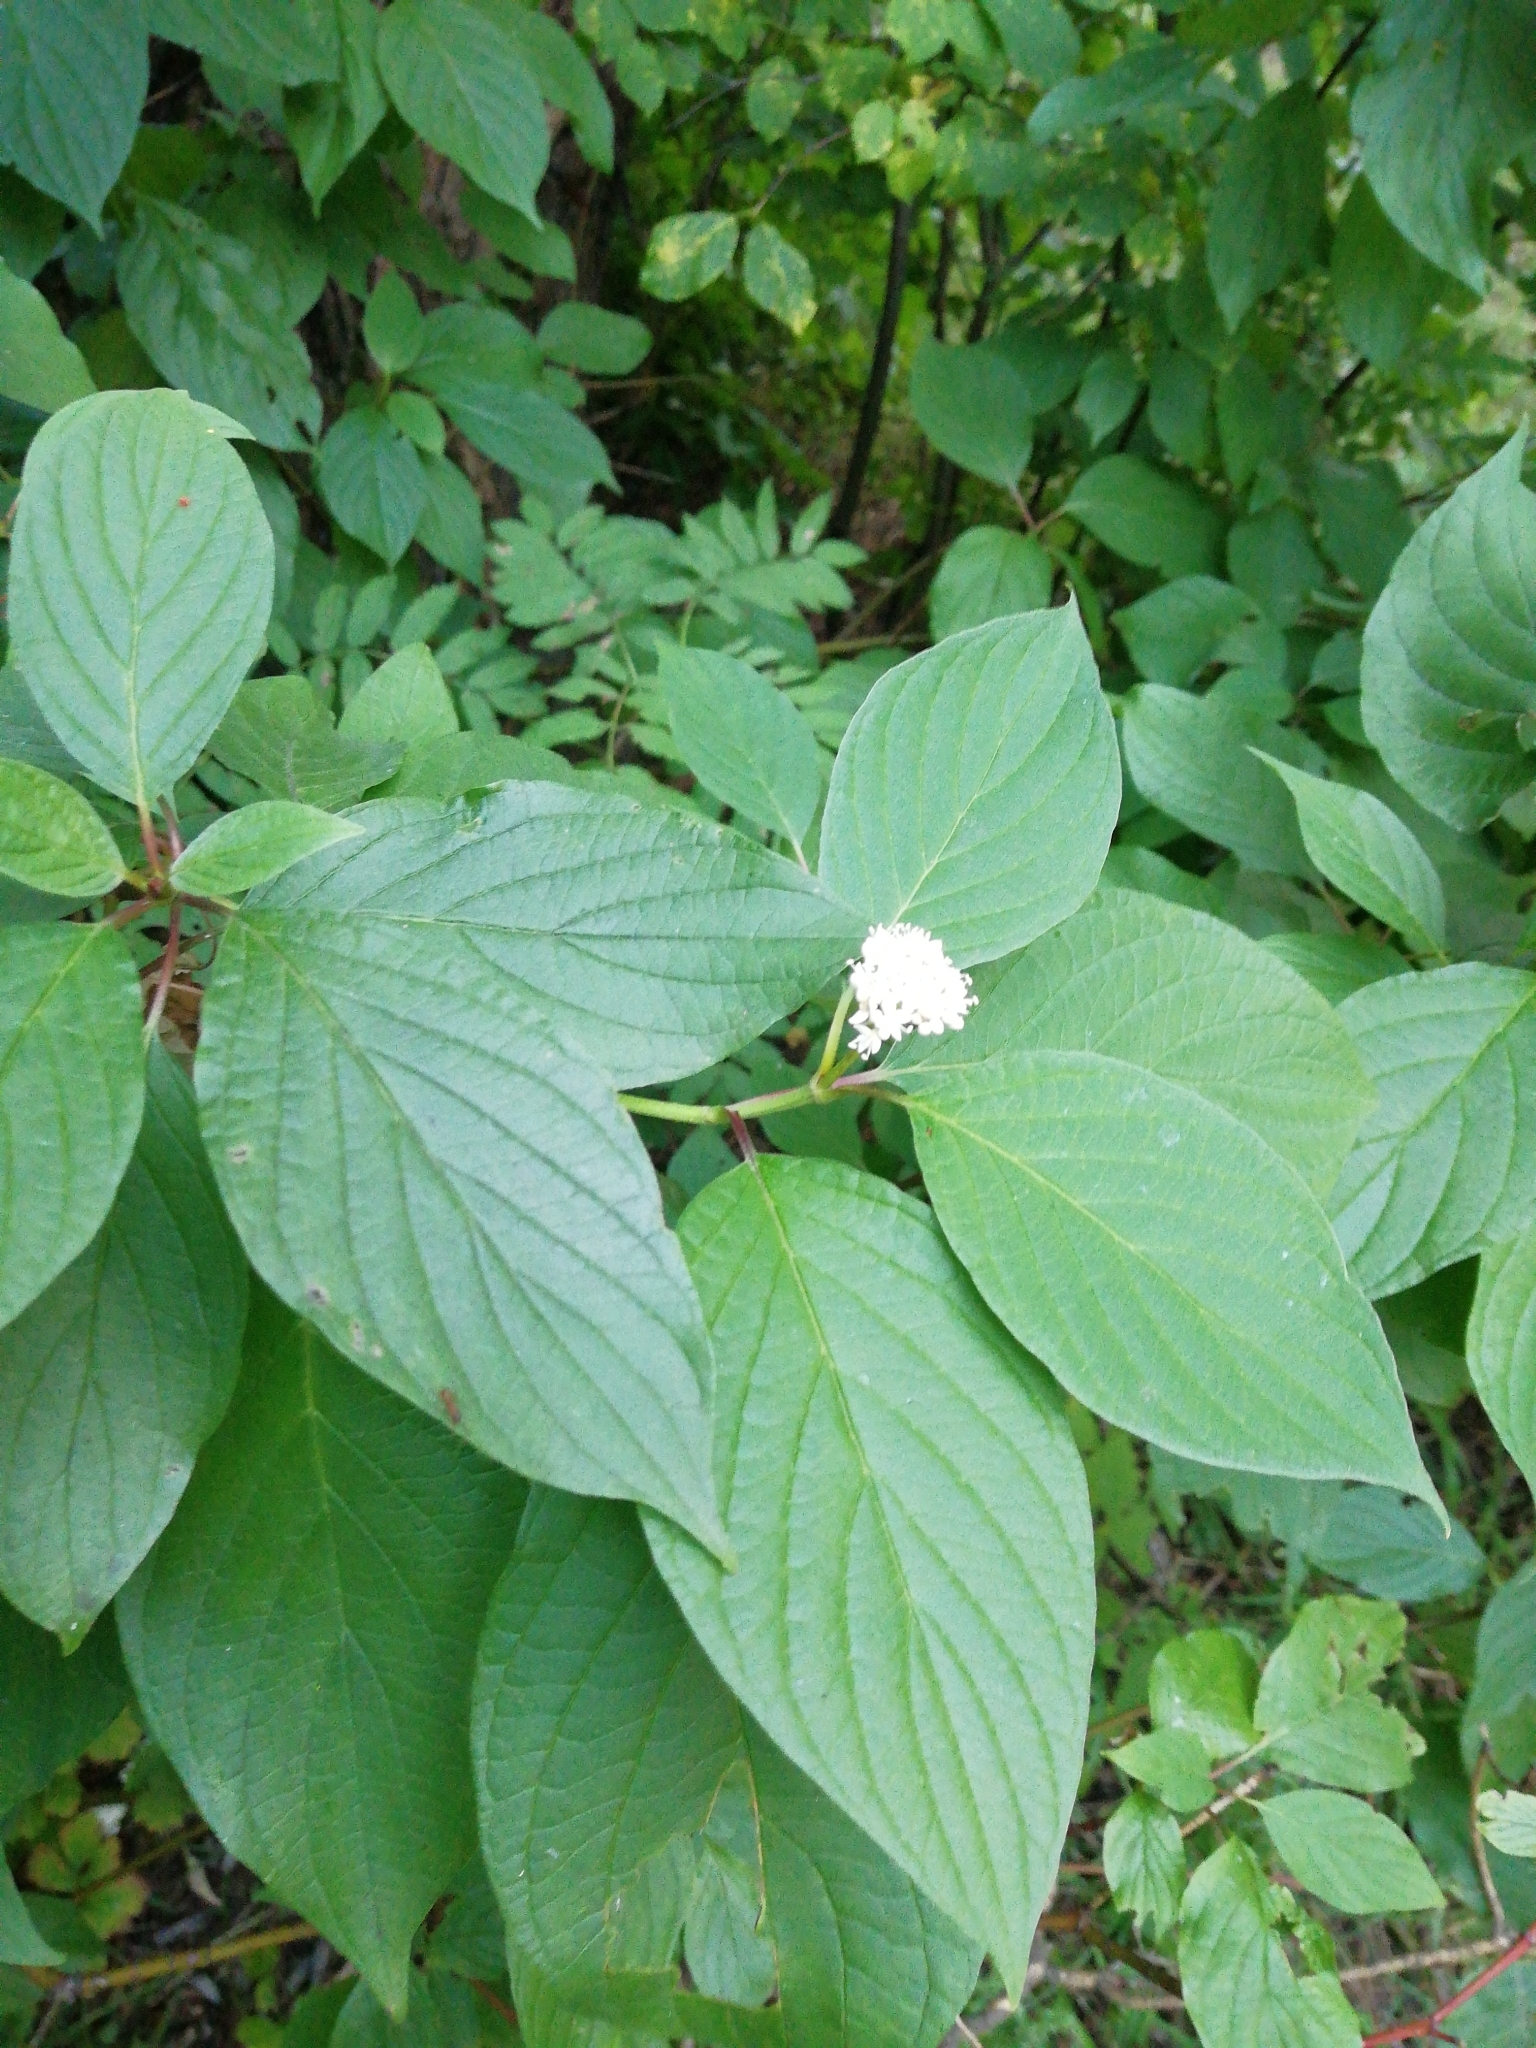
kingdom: Plantae
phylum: Tracheophyta
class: Magnoliopsida
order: Cornales
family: Cornaceae
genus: Cornus
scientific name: Cornus alba
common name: White dogwood
